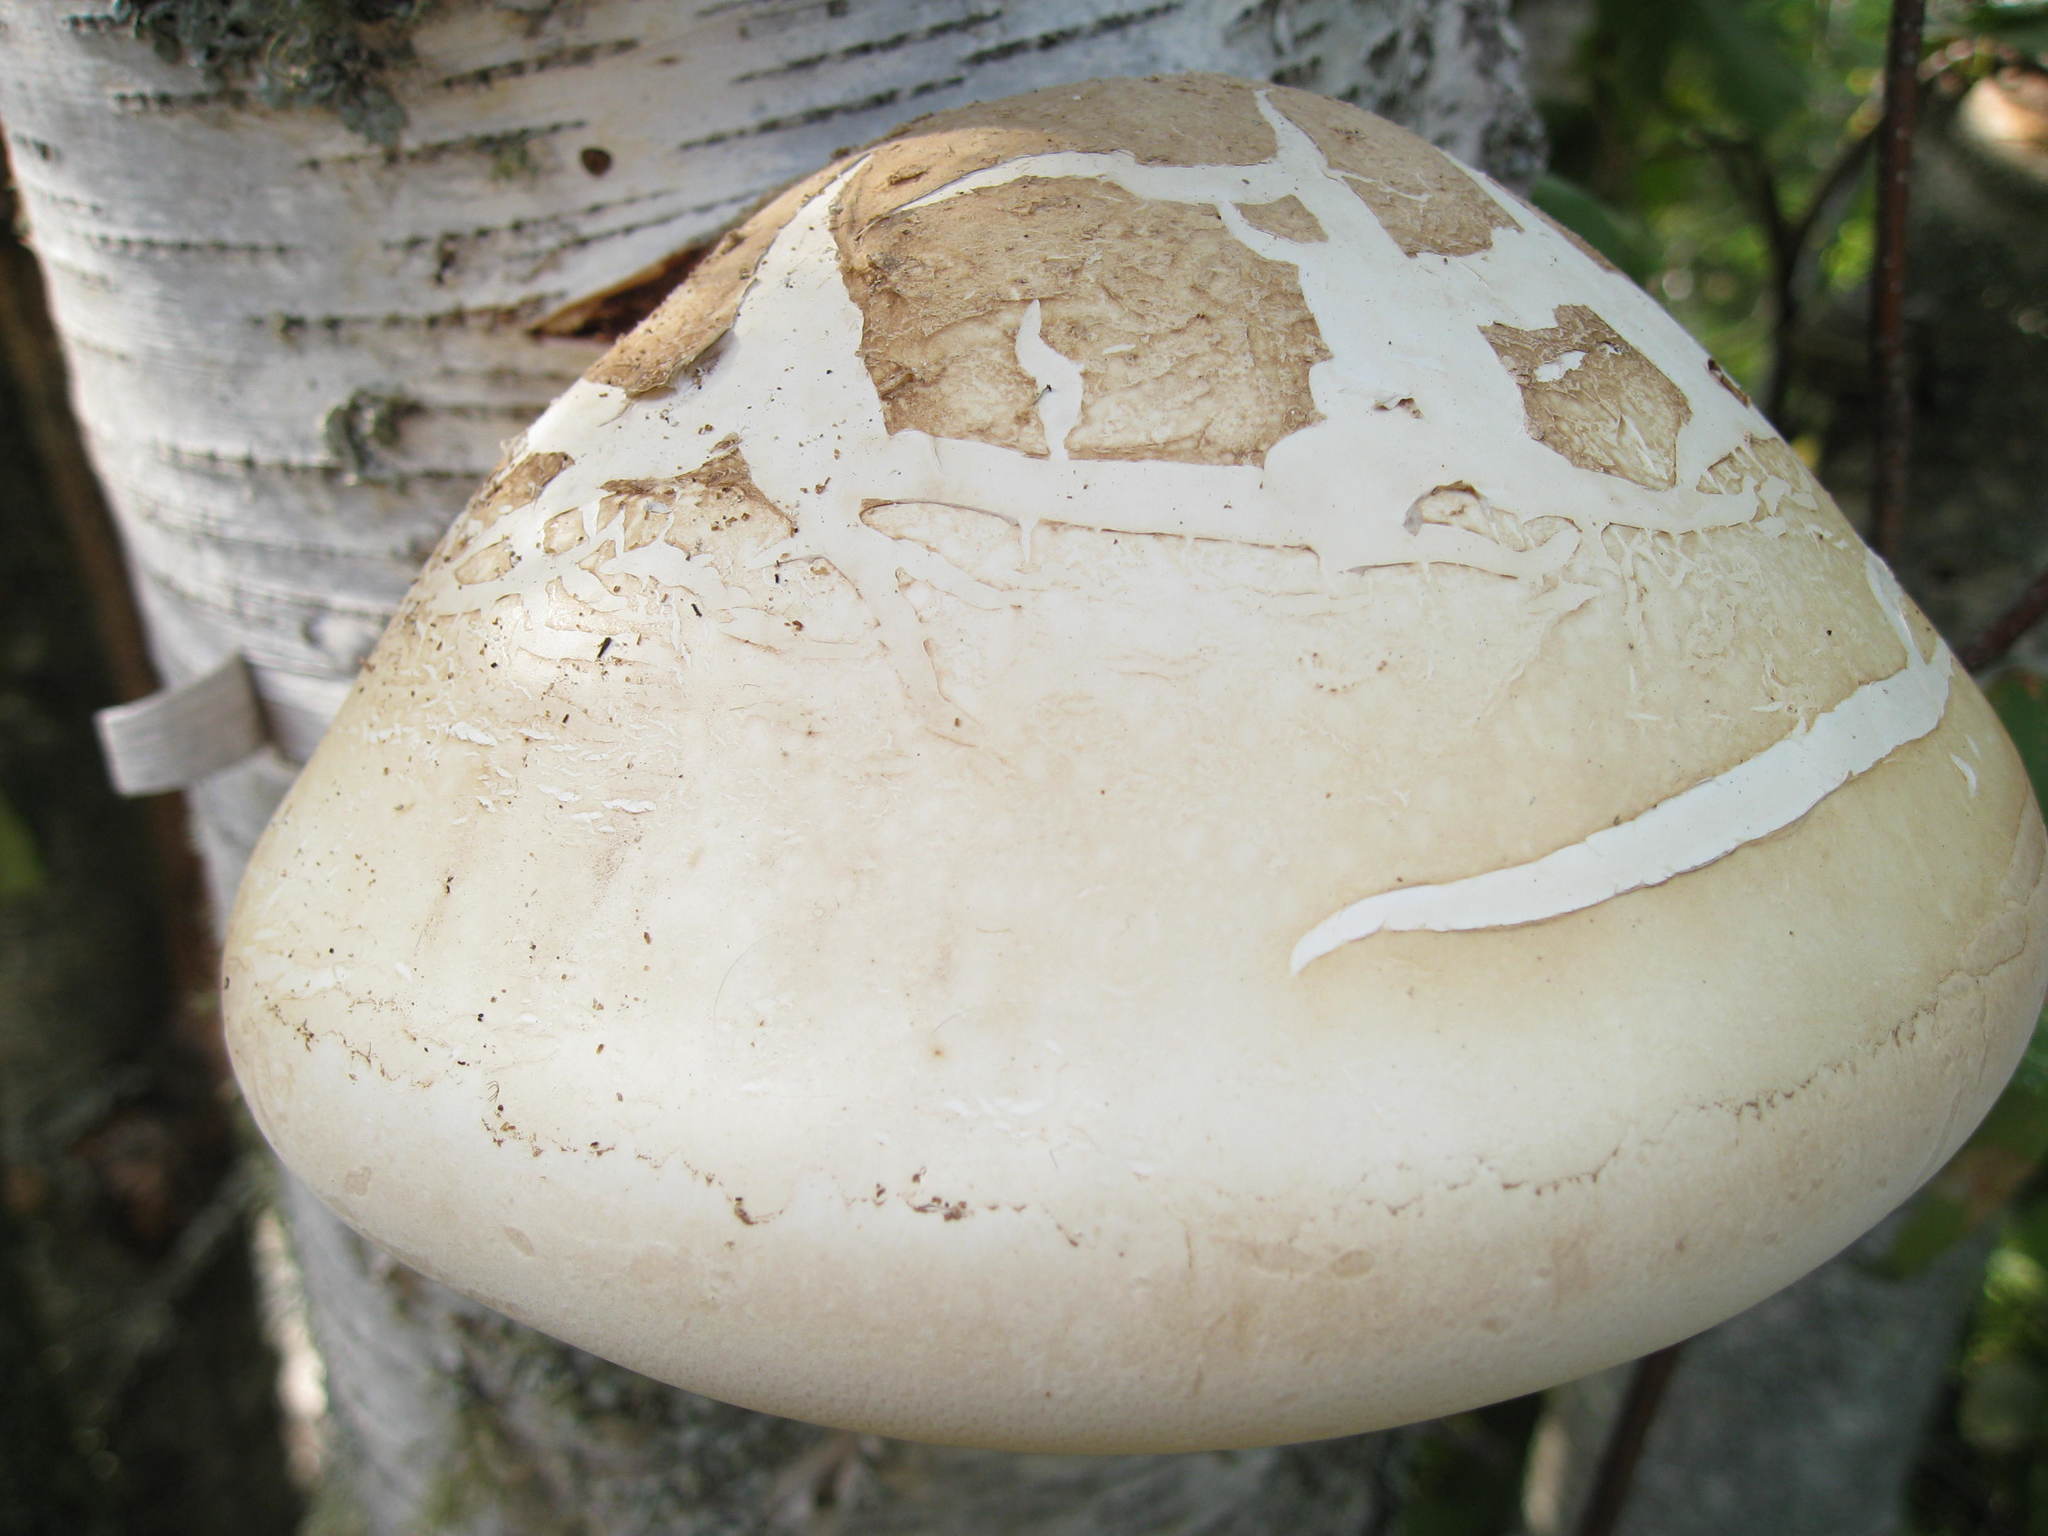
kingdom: Fungi
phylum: Basidiomycota
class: Agaricomycetes
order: Polyporales
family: Fomitopsidaceae
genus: Fomitopsis
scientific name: Fomitopsis betulina
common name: Birch polypore
